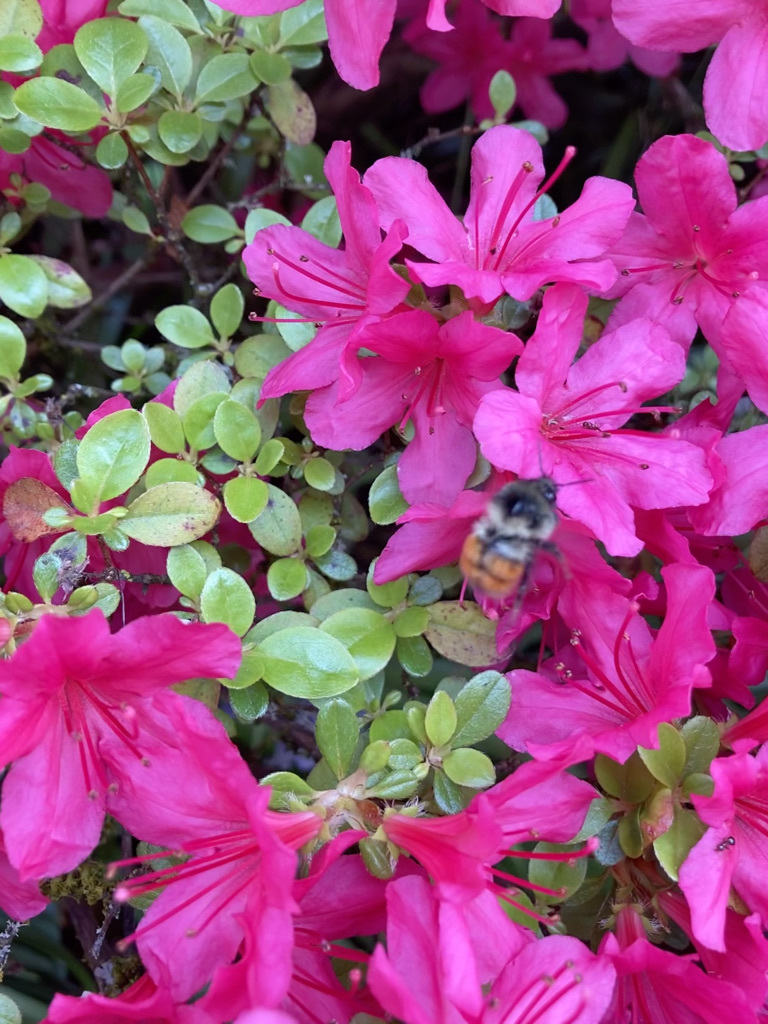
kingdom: Animalia
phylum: Arthropoda
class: Insecta
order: Hymenoptera
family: Apidae
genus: Bombus
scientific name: Bombus melanopygus
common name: Black tail bumble bee
